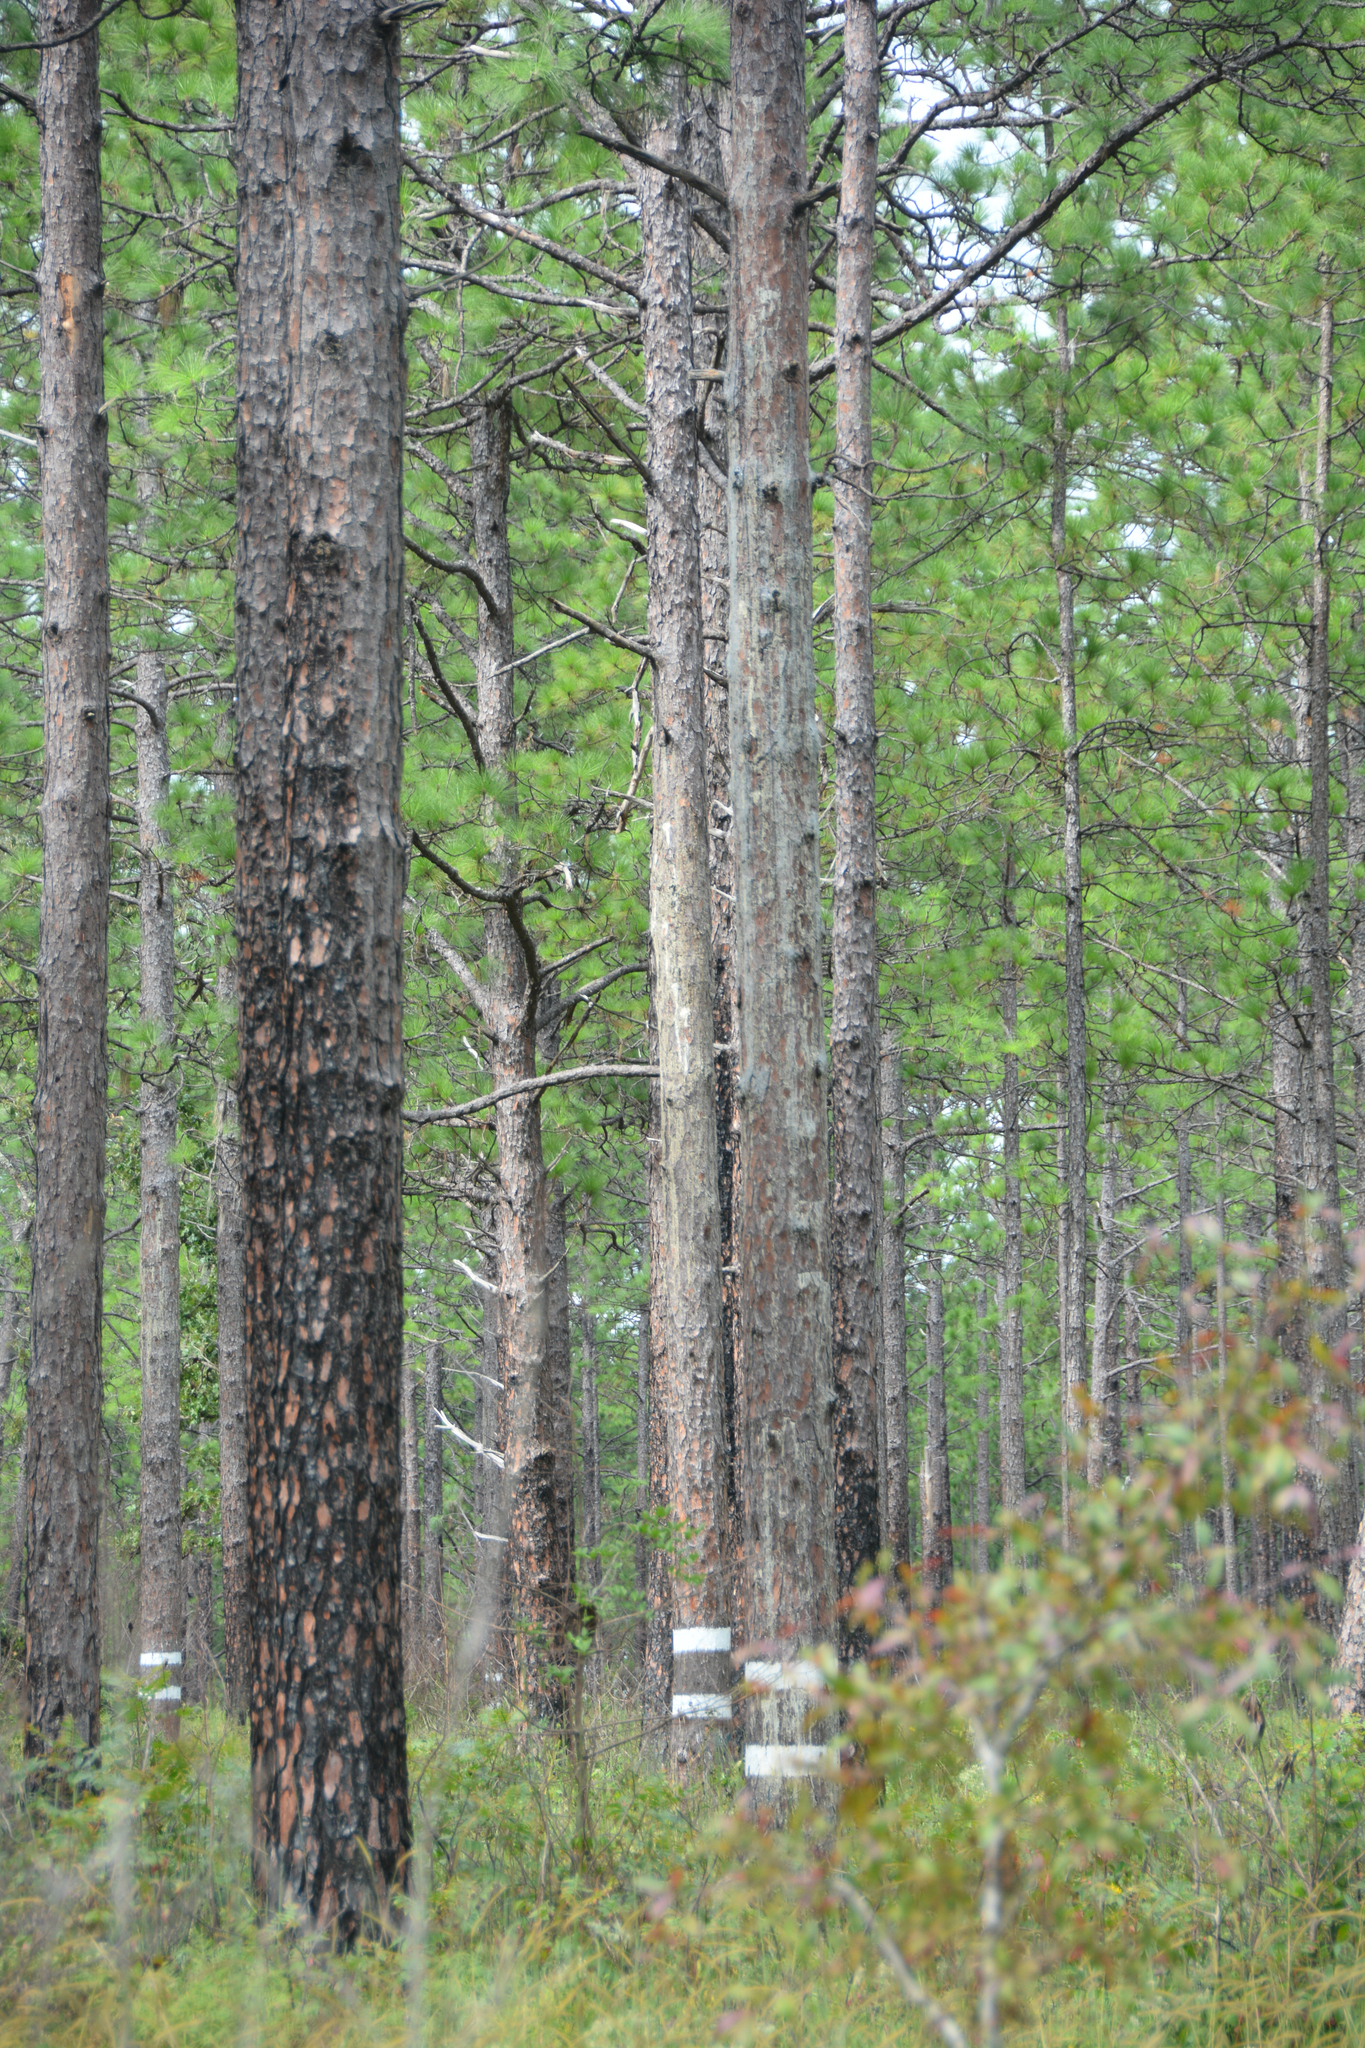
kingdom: Plantae
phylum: Tracheophyta
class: Pinopsida
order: Pinales
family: Pinaceae
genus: Pinus
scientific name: Pinus palustris
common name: Longleaf pine
